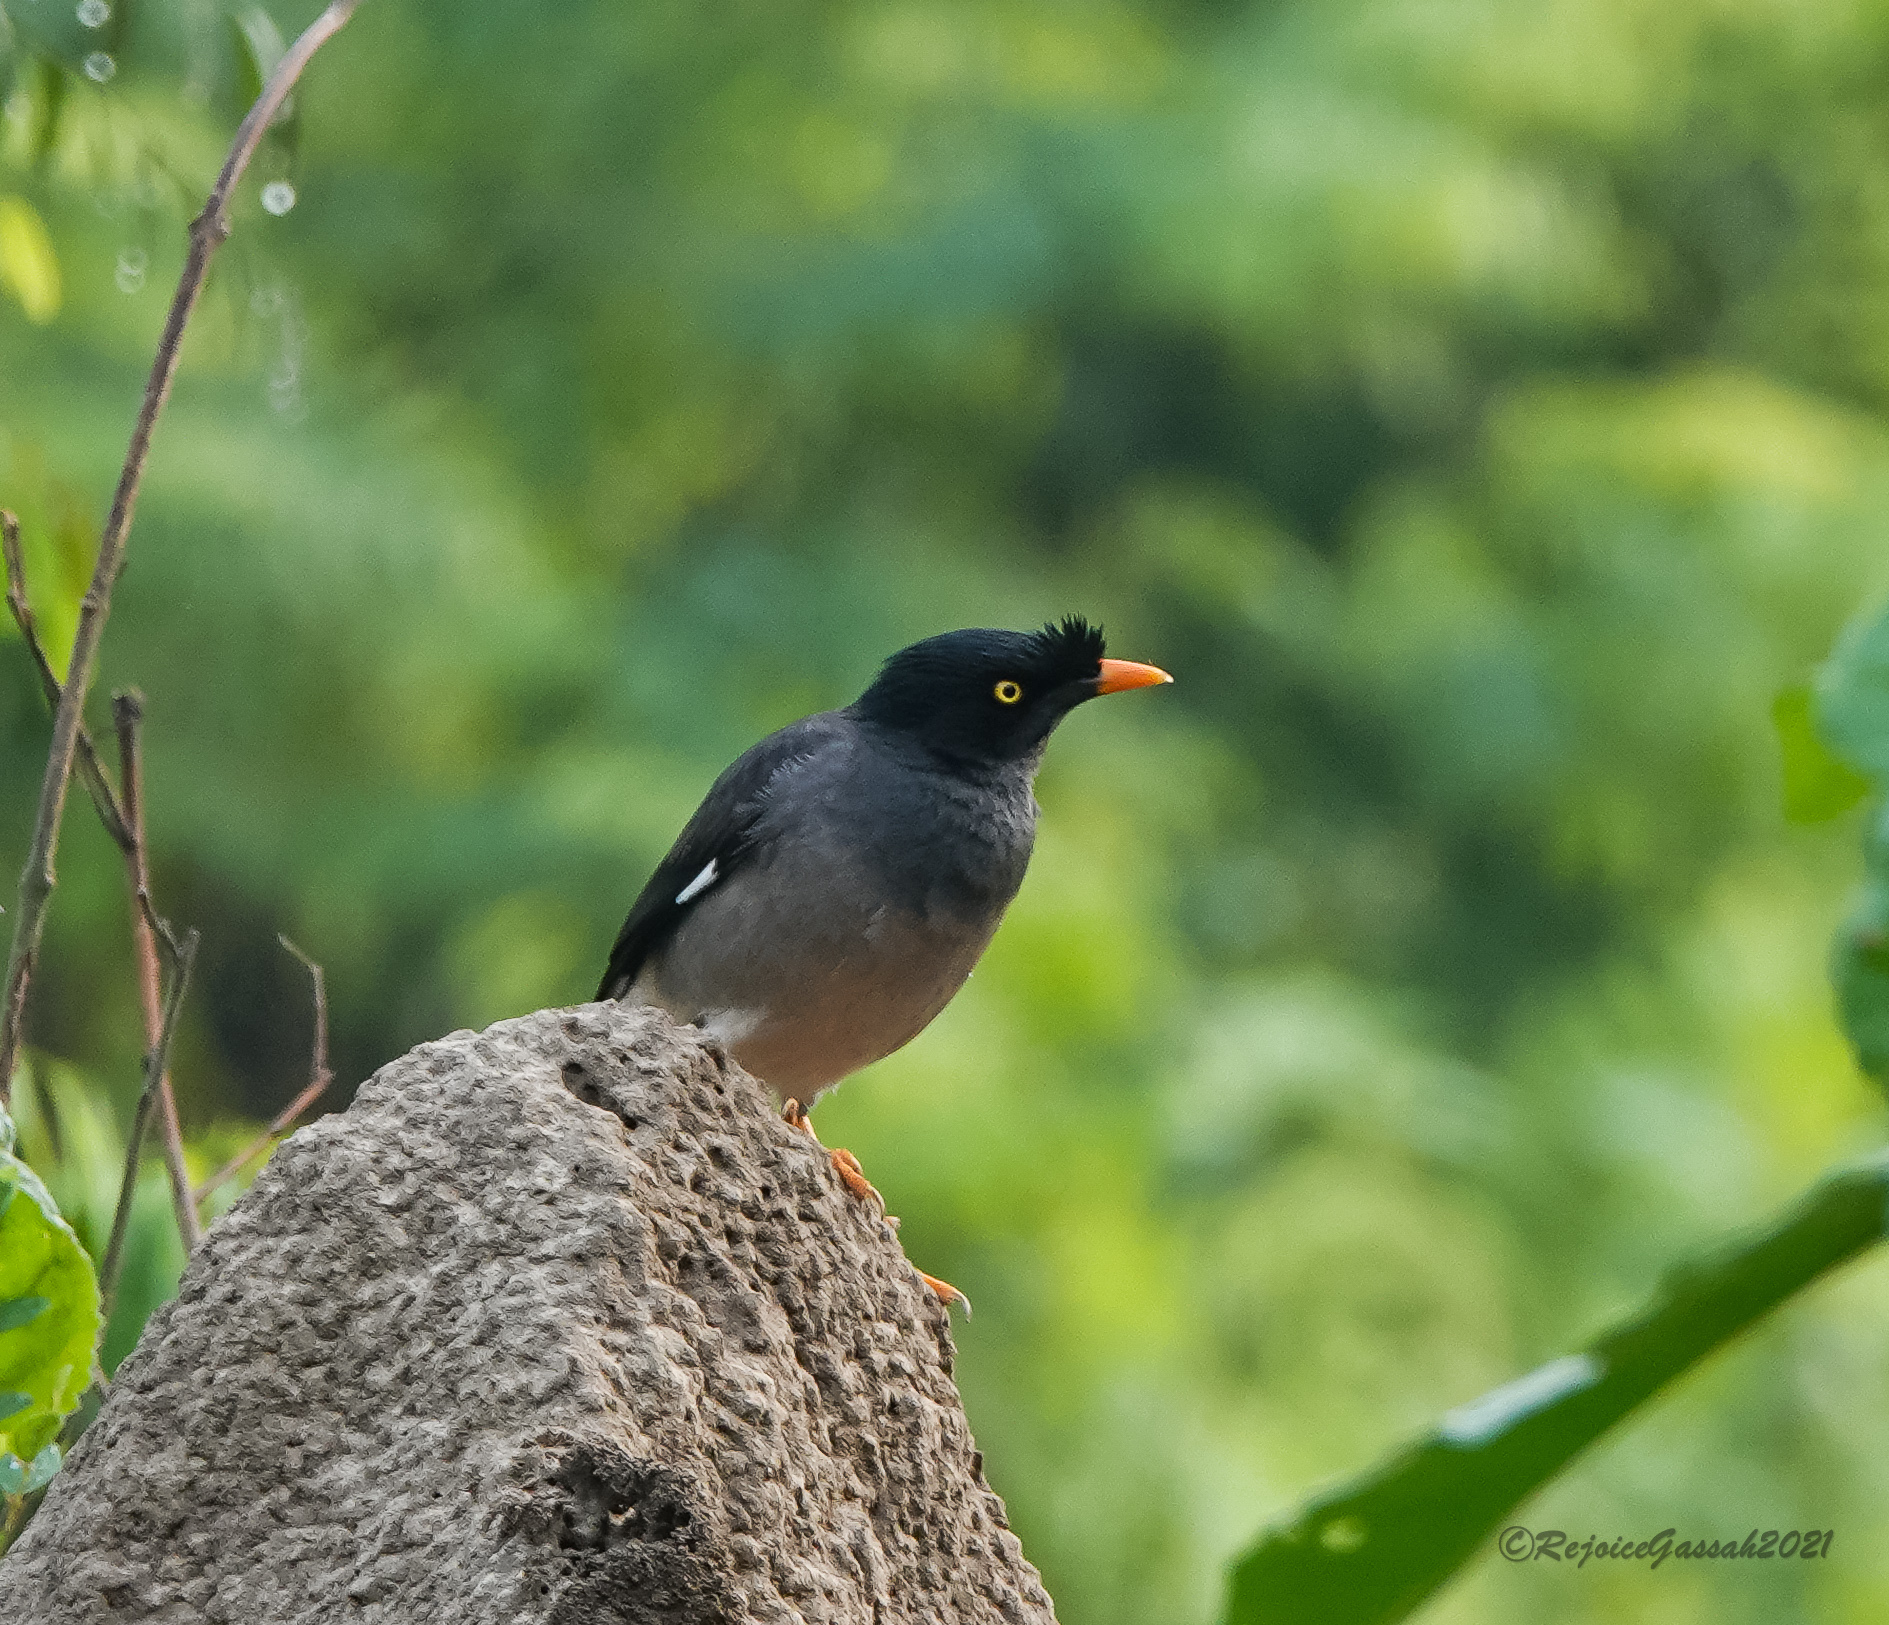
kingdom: Animalia
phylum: Chordata
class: Aves
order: Passeriformes
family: Sturnidae
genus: Acridotheres
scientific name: Acridotheres fuscus
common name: Jungle myna
